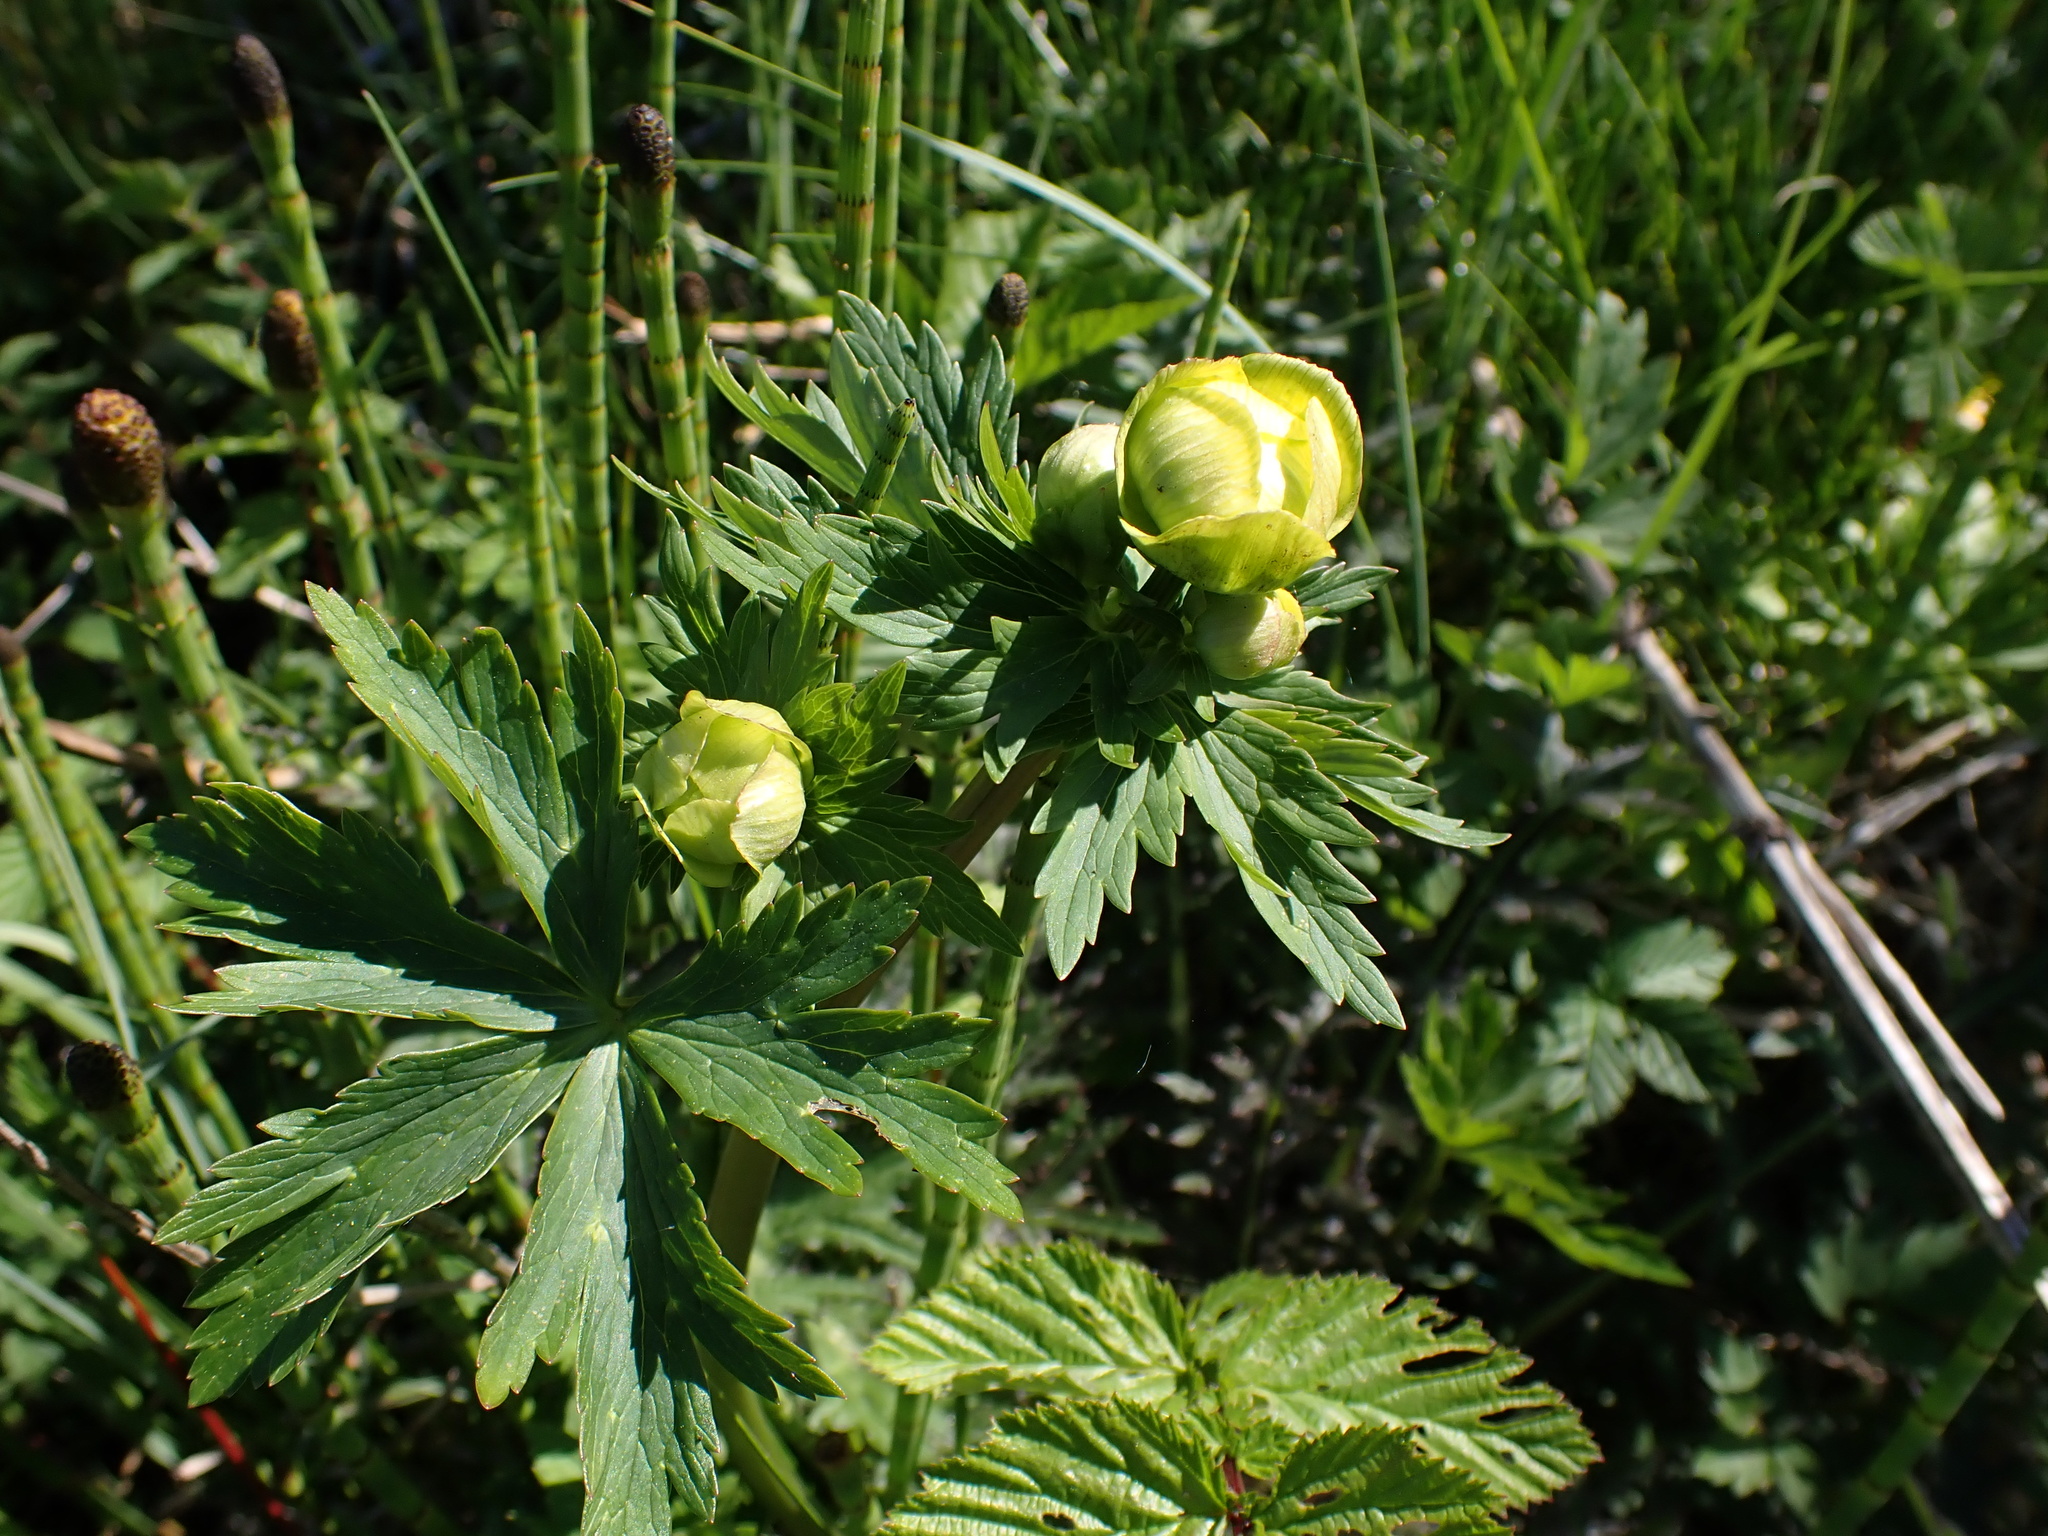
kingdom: Plantae
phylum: Tracheophyta
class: Magnoliopsida
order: Ranunculales
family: Ranunculaceae
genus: Trollius
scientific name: Trollius europaeus
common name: European globeflower
